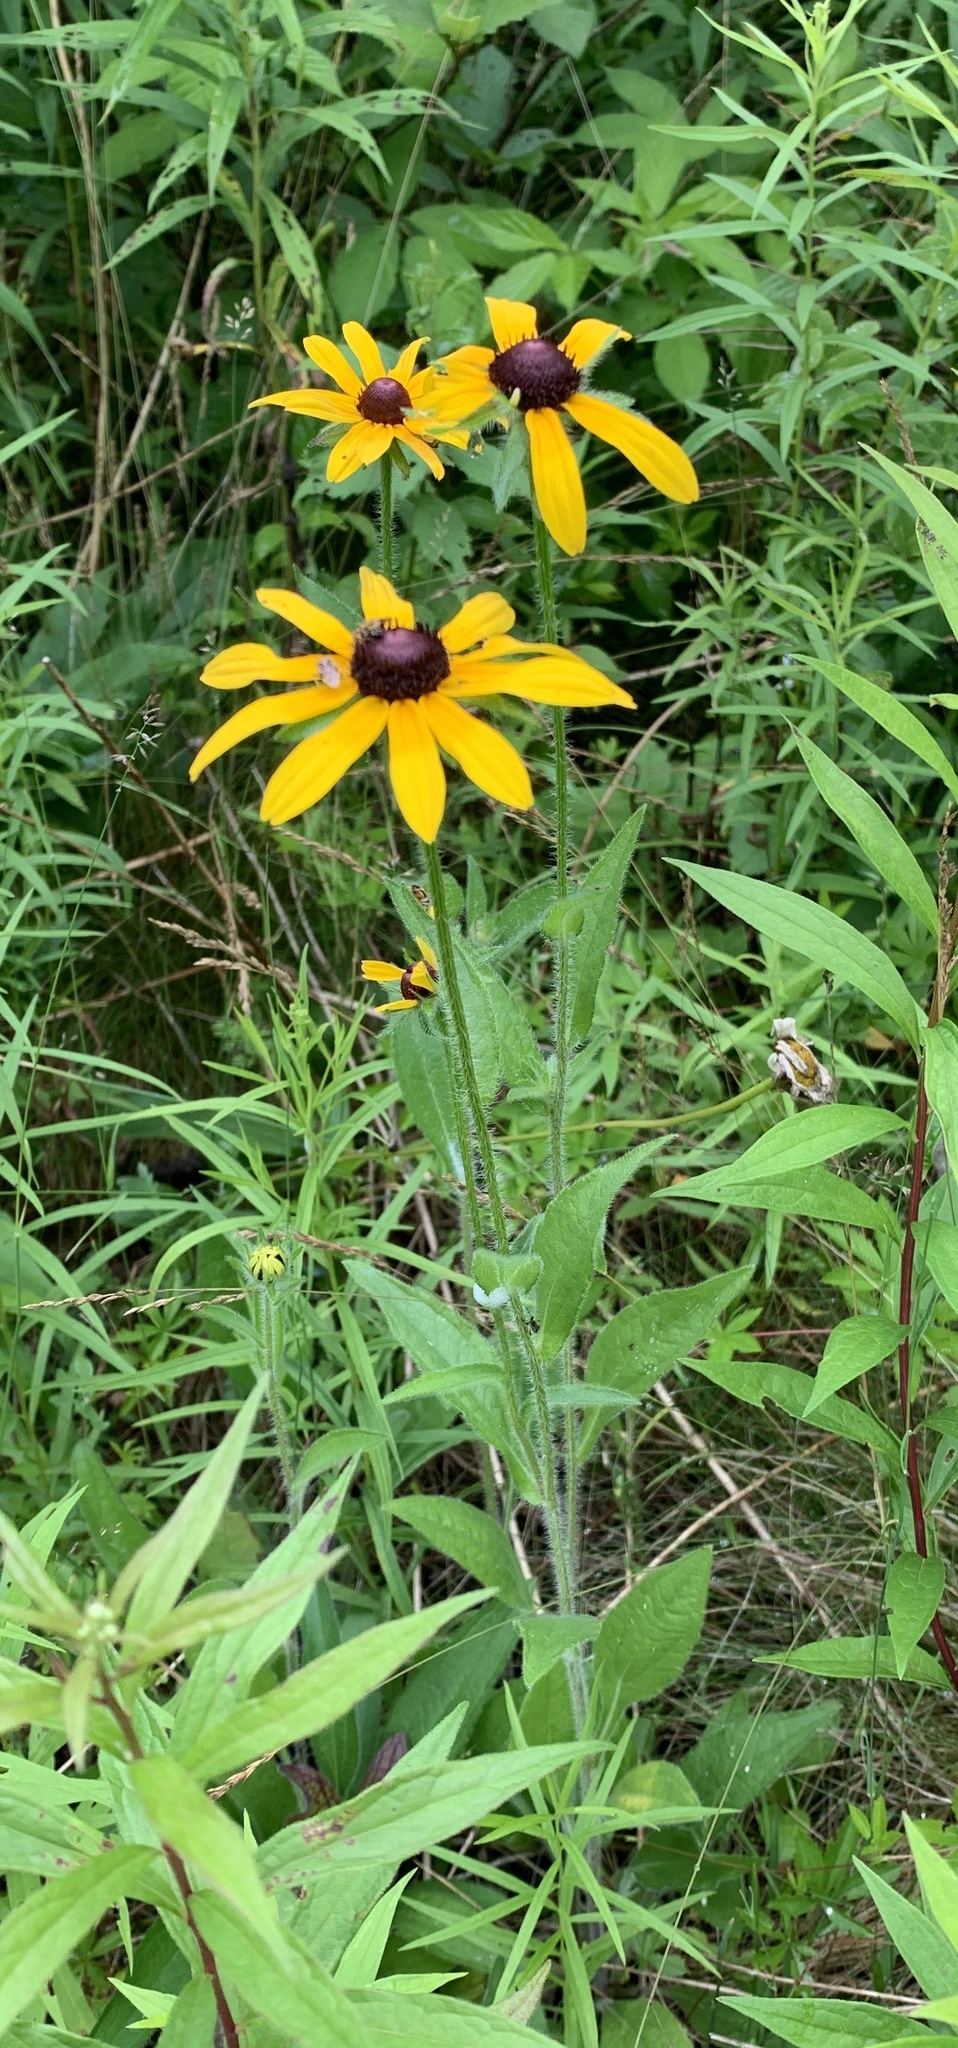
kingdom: Plantae
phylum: Tracheophyta
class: Magnoliopsida
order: Asterales
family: Asteraceae
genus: Rudbeckia
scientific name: Rudbeckia hirta
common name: Black-eyed-susan
